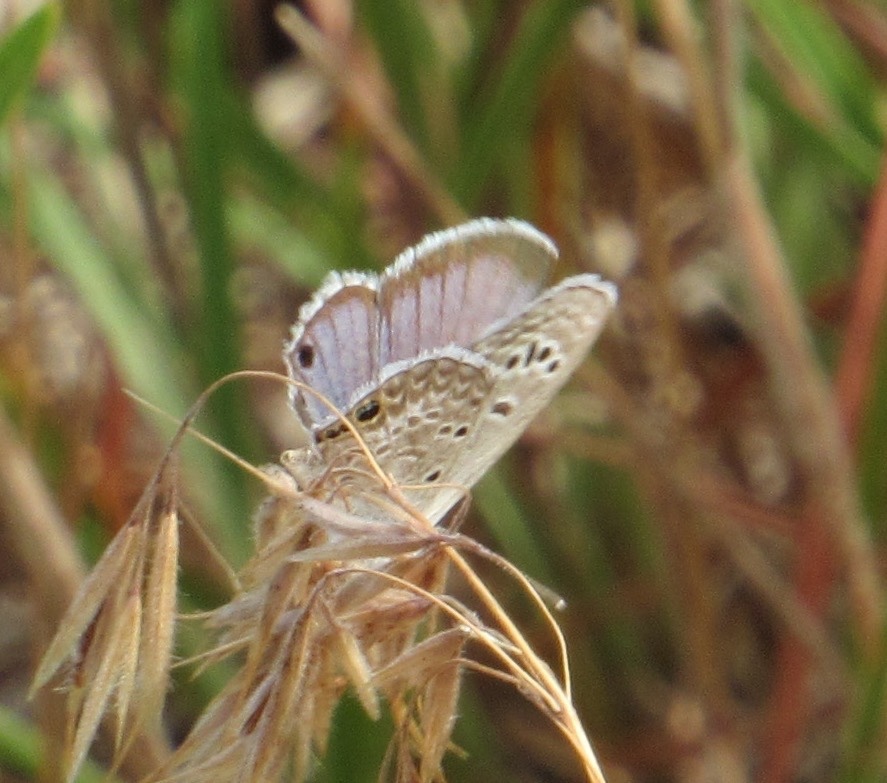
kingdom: Animalia
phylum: Arthropoda
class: Insecta
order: Lepidoptera
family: Lycaenidae
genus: Echinargus
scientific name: Echinargus isola
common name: Reakirt's blue
